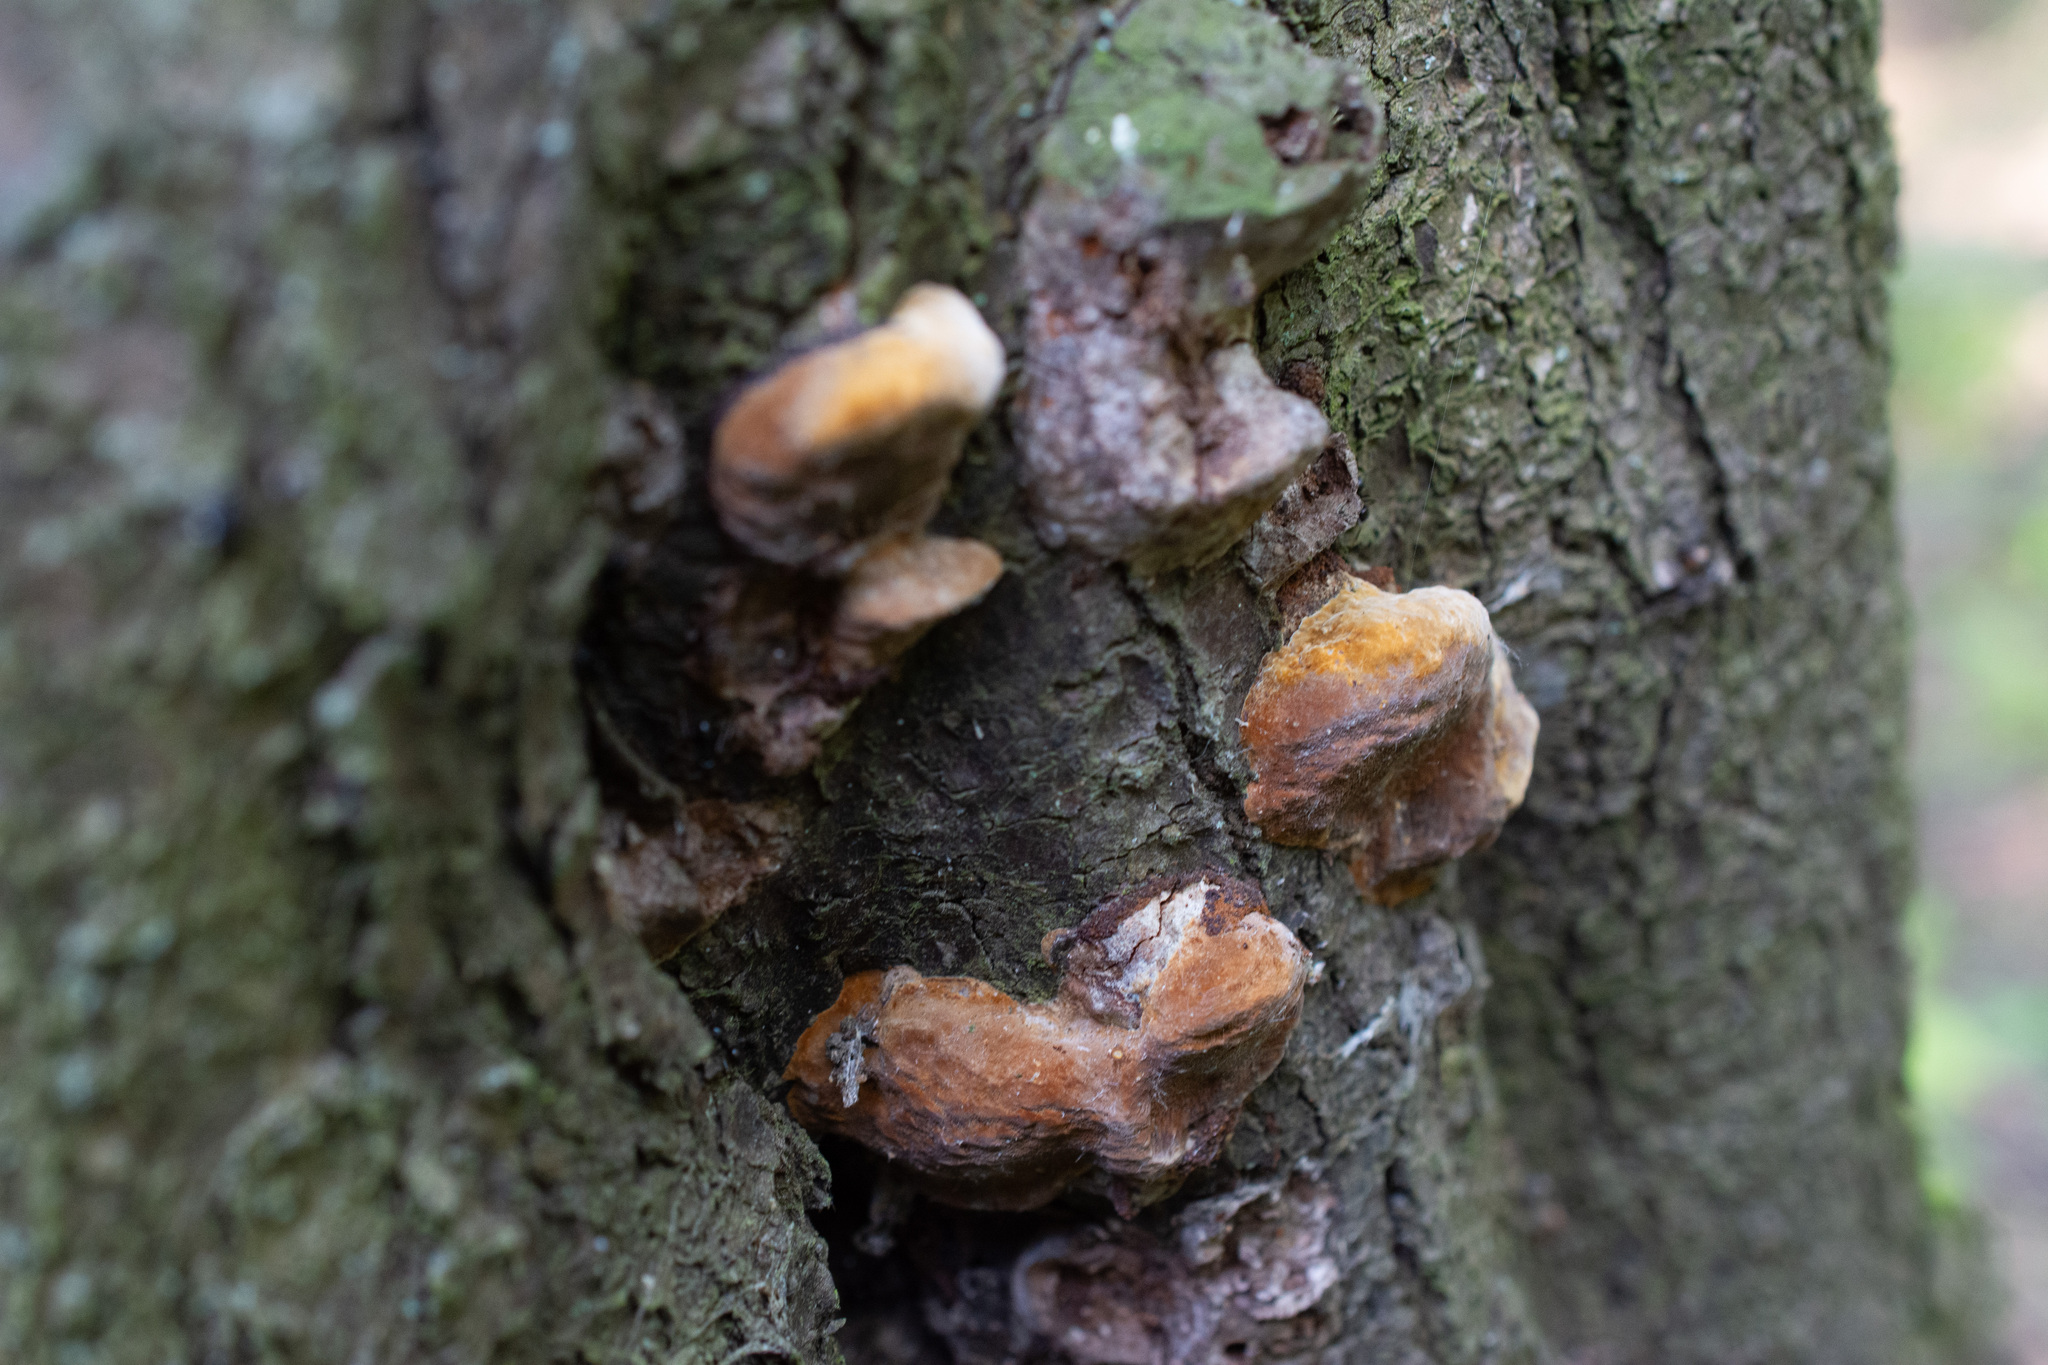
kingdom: Fungi
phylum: Basidiomycota
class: Agaricomycetes
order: Hymenochaetales
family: Hymenochaetaceae
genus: Phellinus
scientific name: Phellinus pomaceus
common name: Cushion bracket
